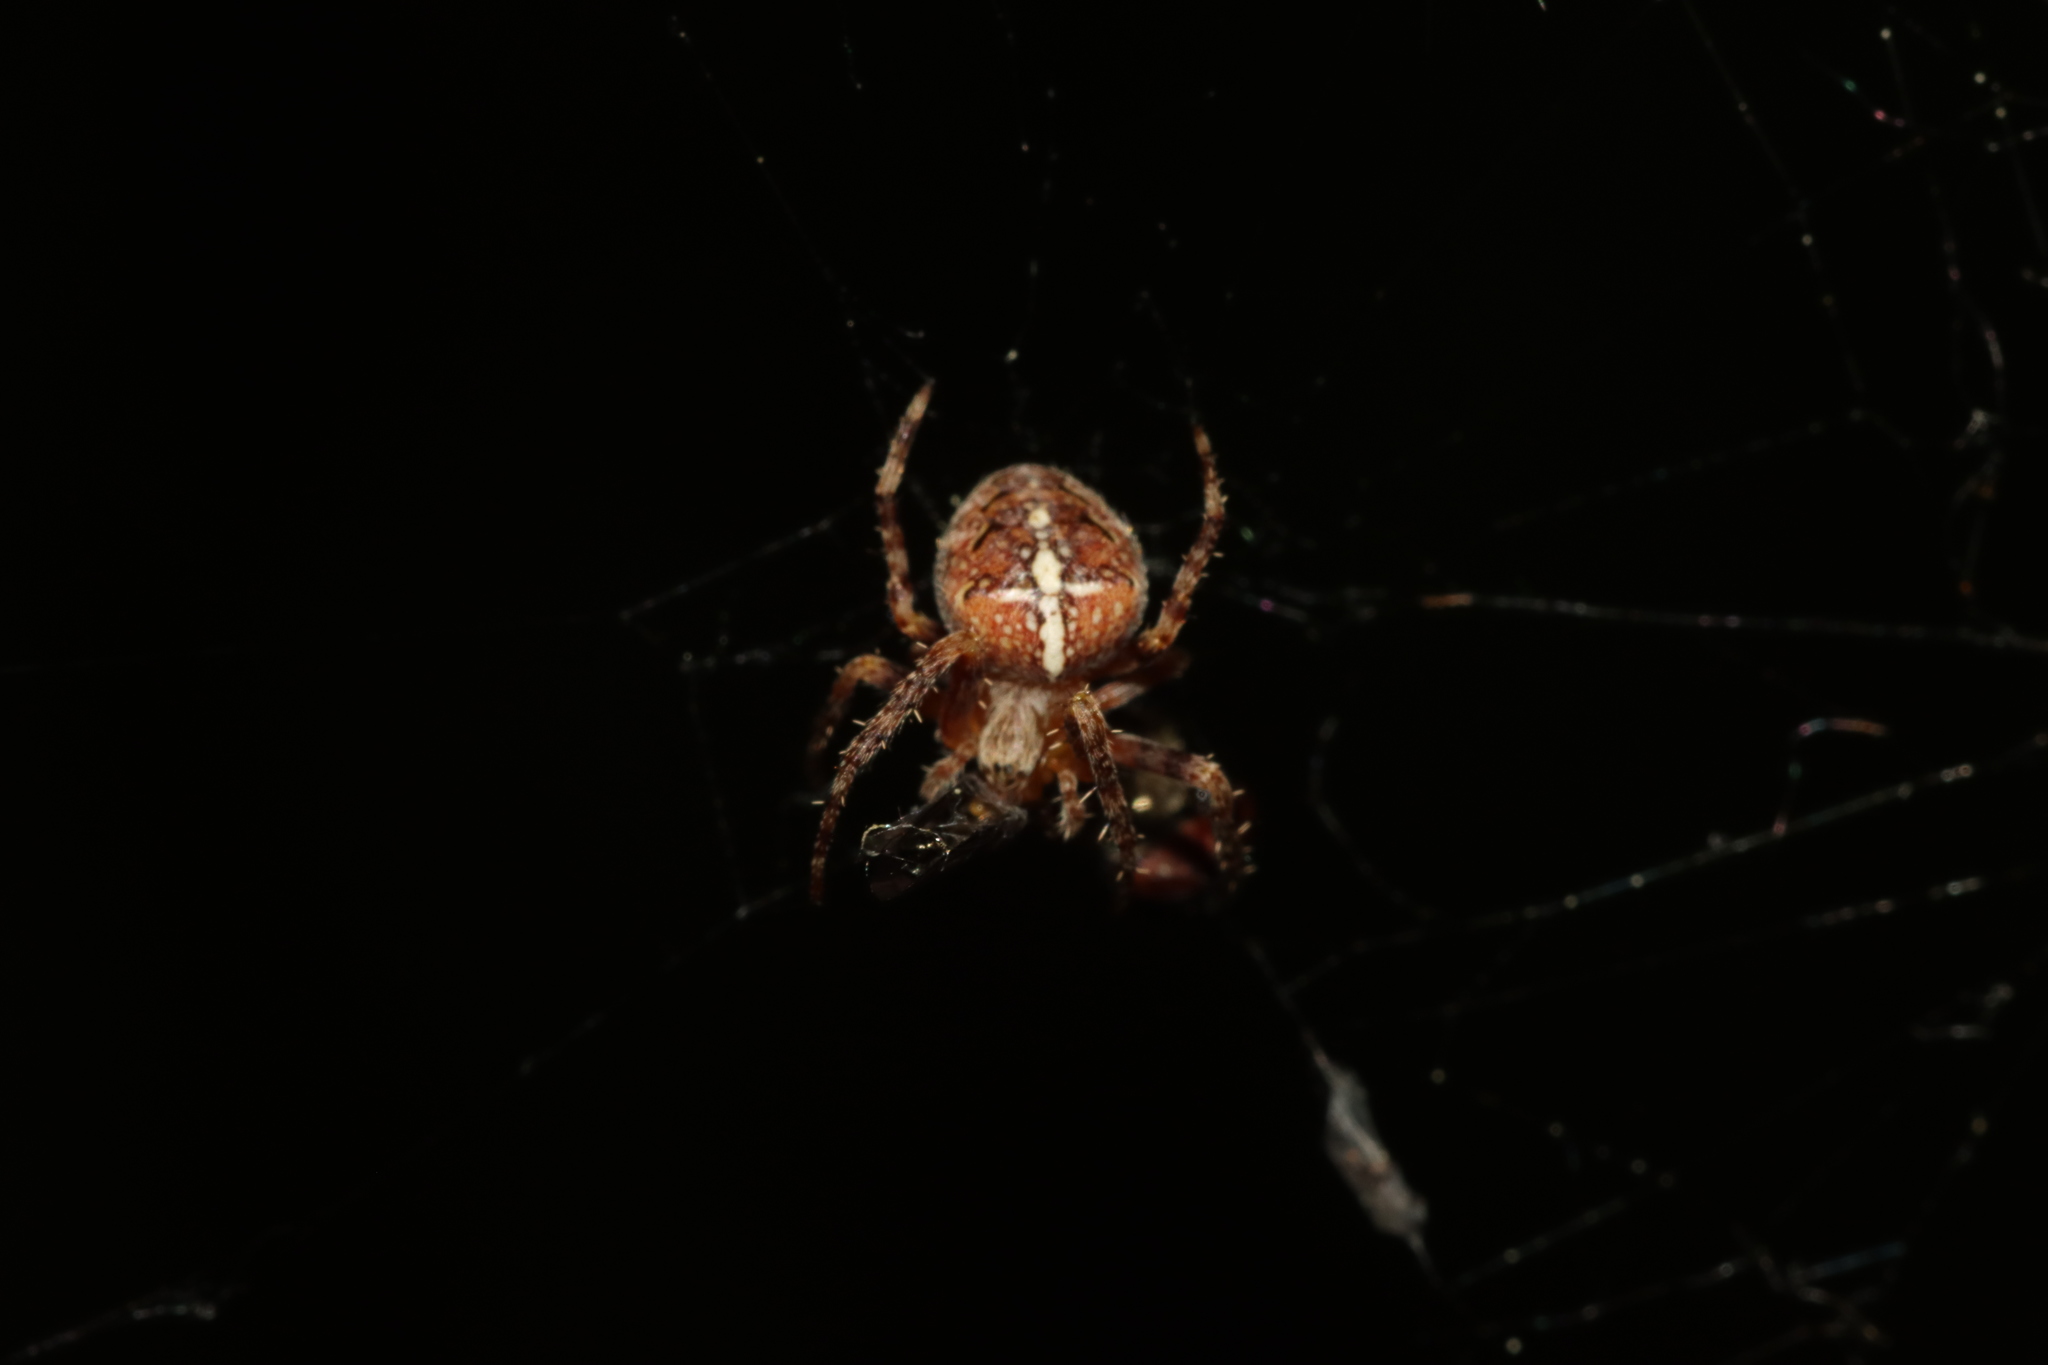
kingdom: Animalia
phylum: Arthropoda
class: Arachnida
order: Araneae
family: Araneidae
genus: Araneus
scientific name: Araneus diadematus
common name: Cross orbweaver
